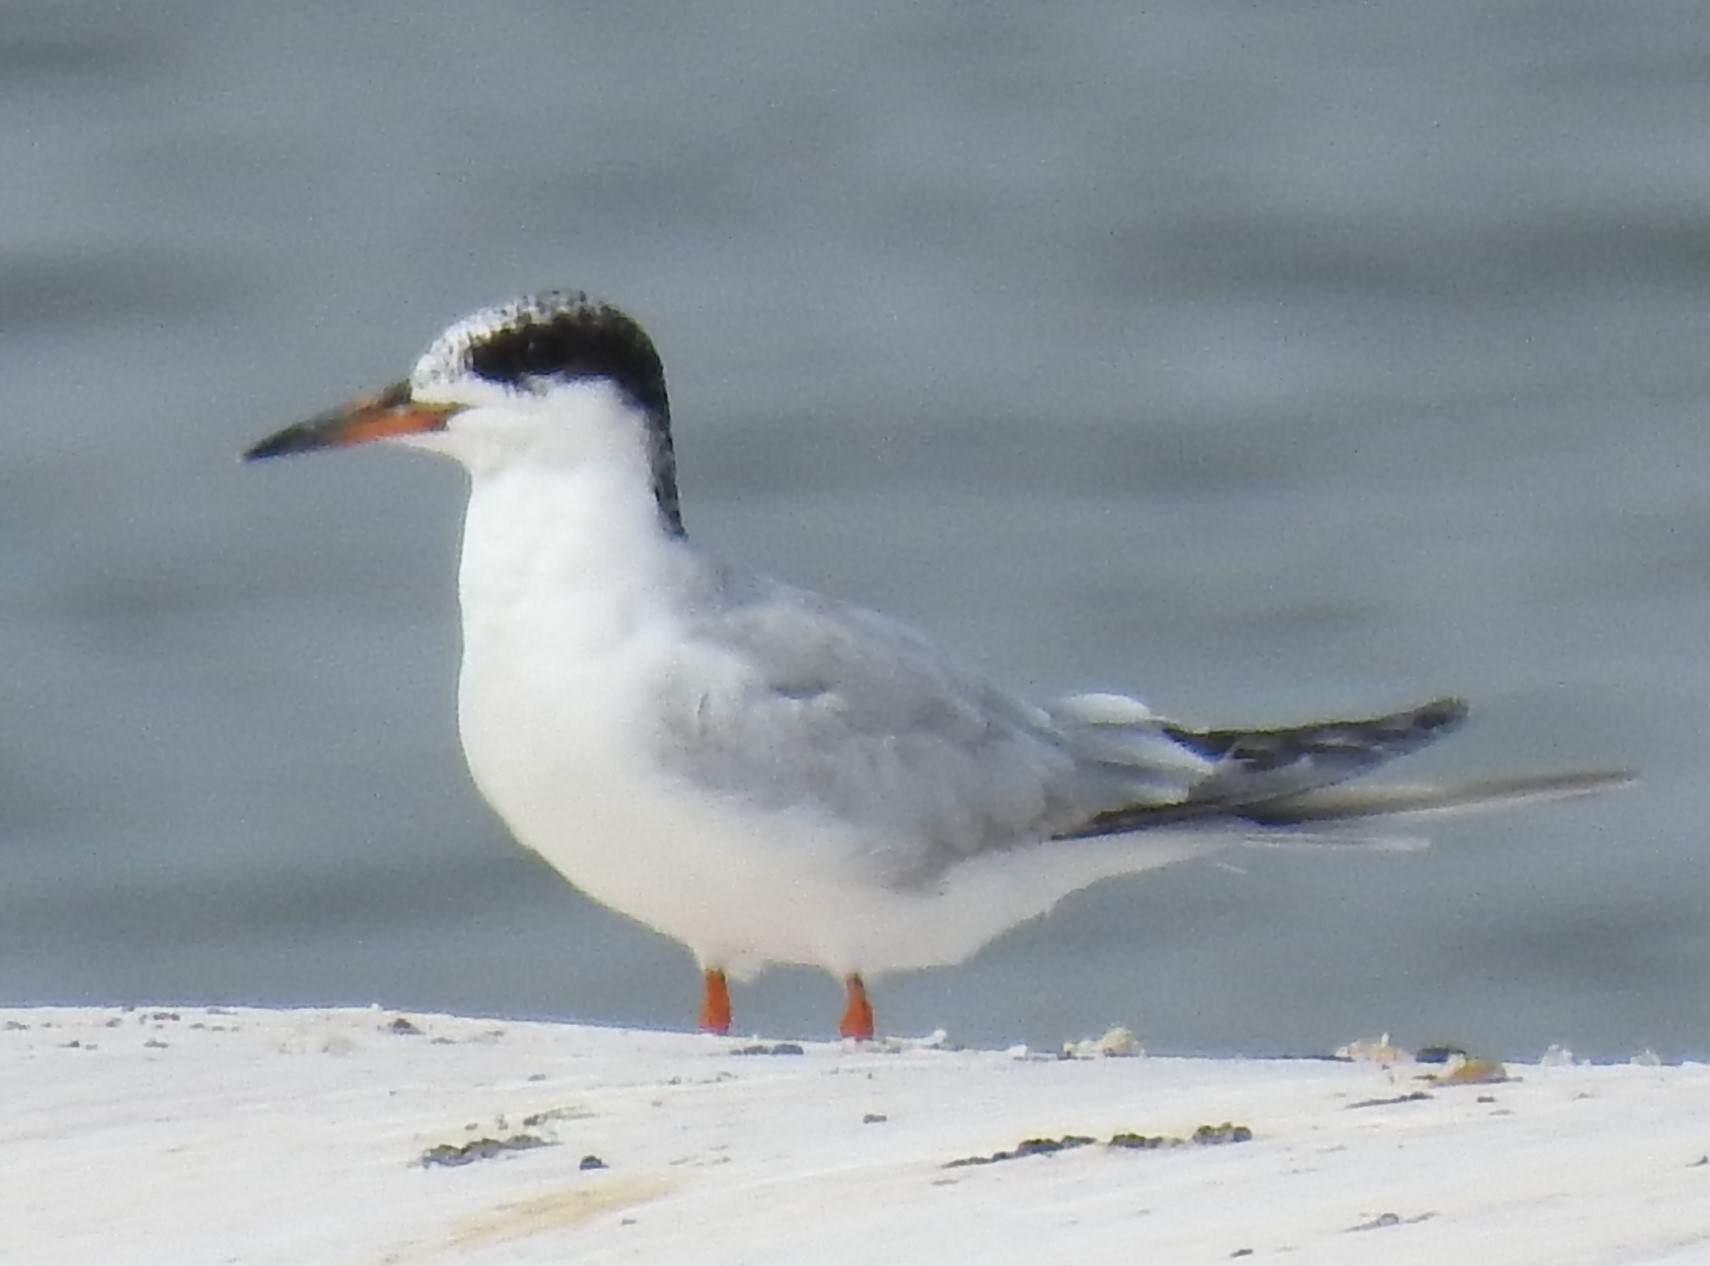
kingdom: Animalia
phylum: Chordata
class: Aves
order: Charadriiformes
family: Laridae
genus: Sterna
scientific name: Sterna hirundo
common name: Common tern
